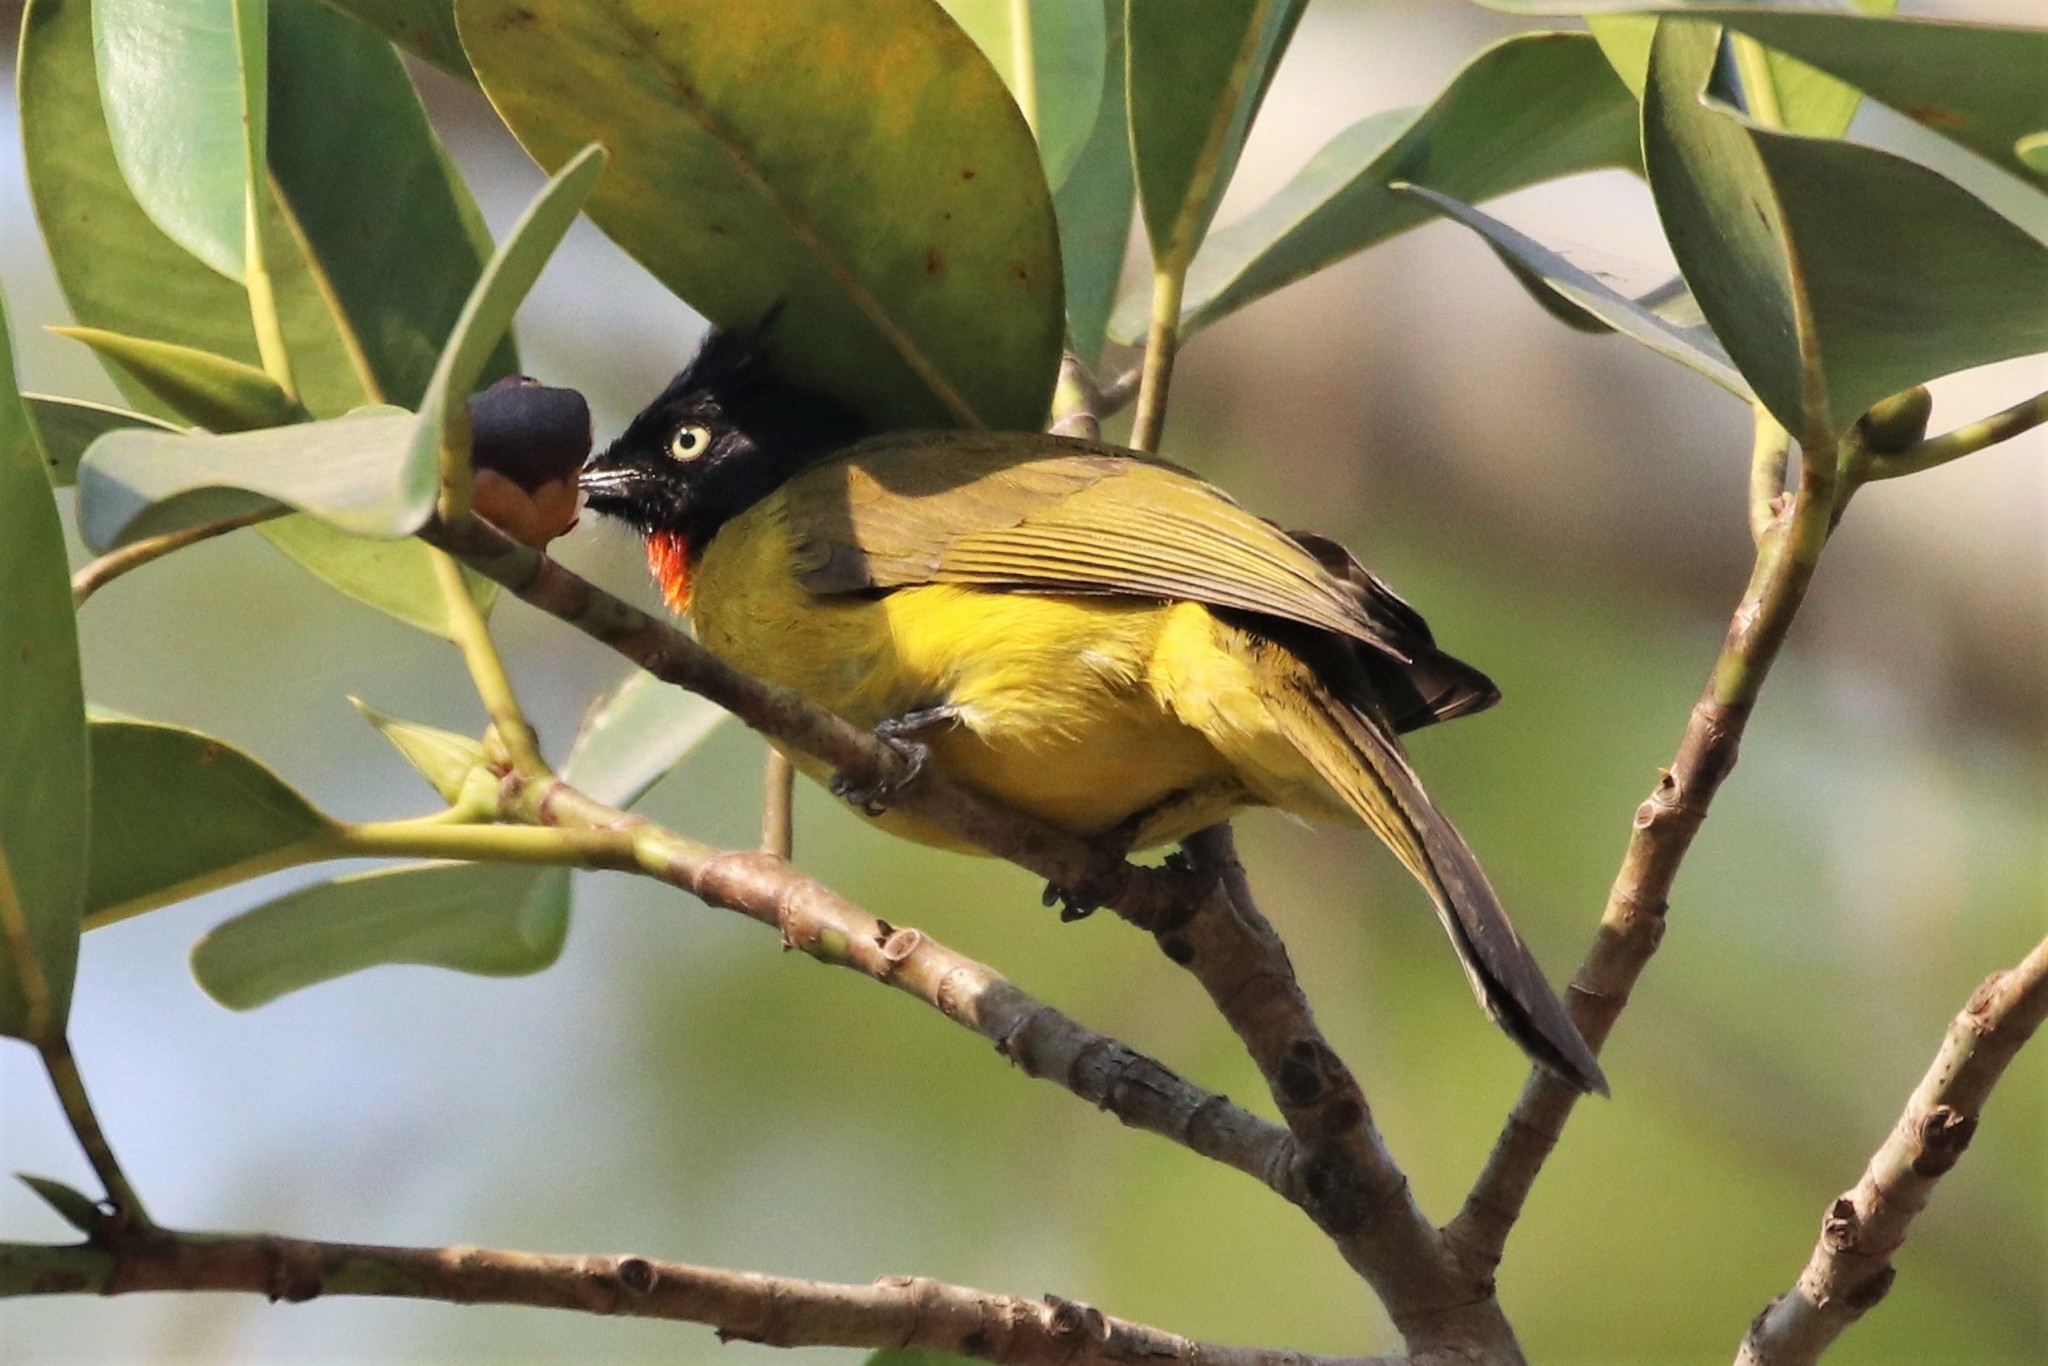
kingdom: Animalia
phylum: Chordata
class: Aves
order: Passeriformes
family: Pycnonotidae
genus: Pycnonotus
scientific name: Pycnonotus flaviventris
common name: Black-crested bulbul
